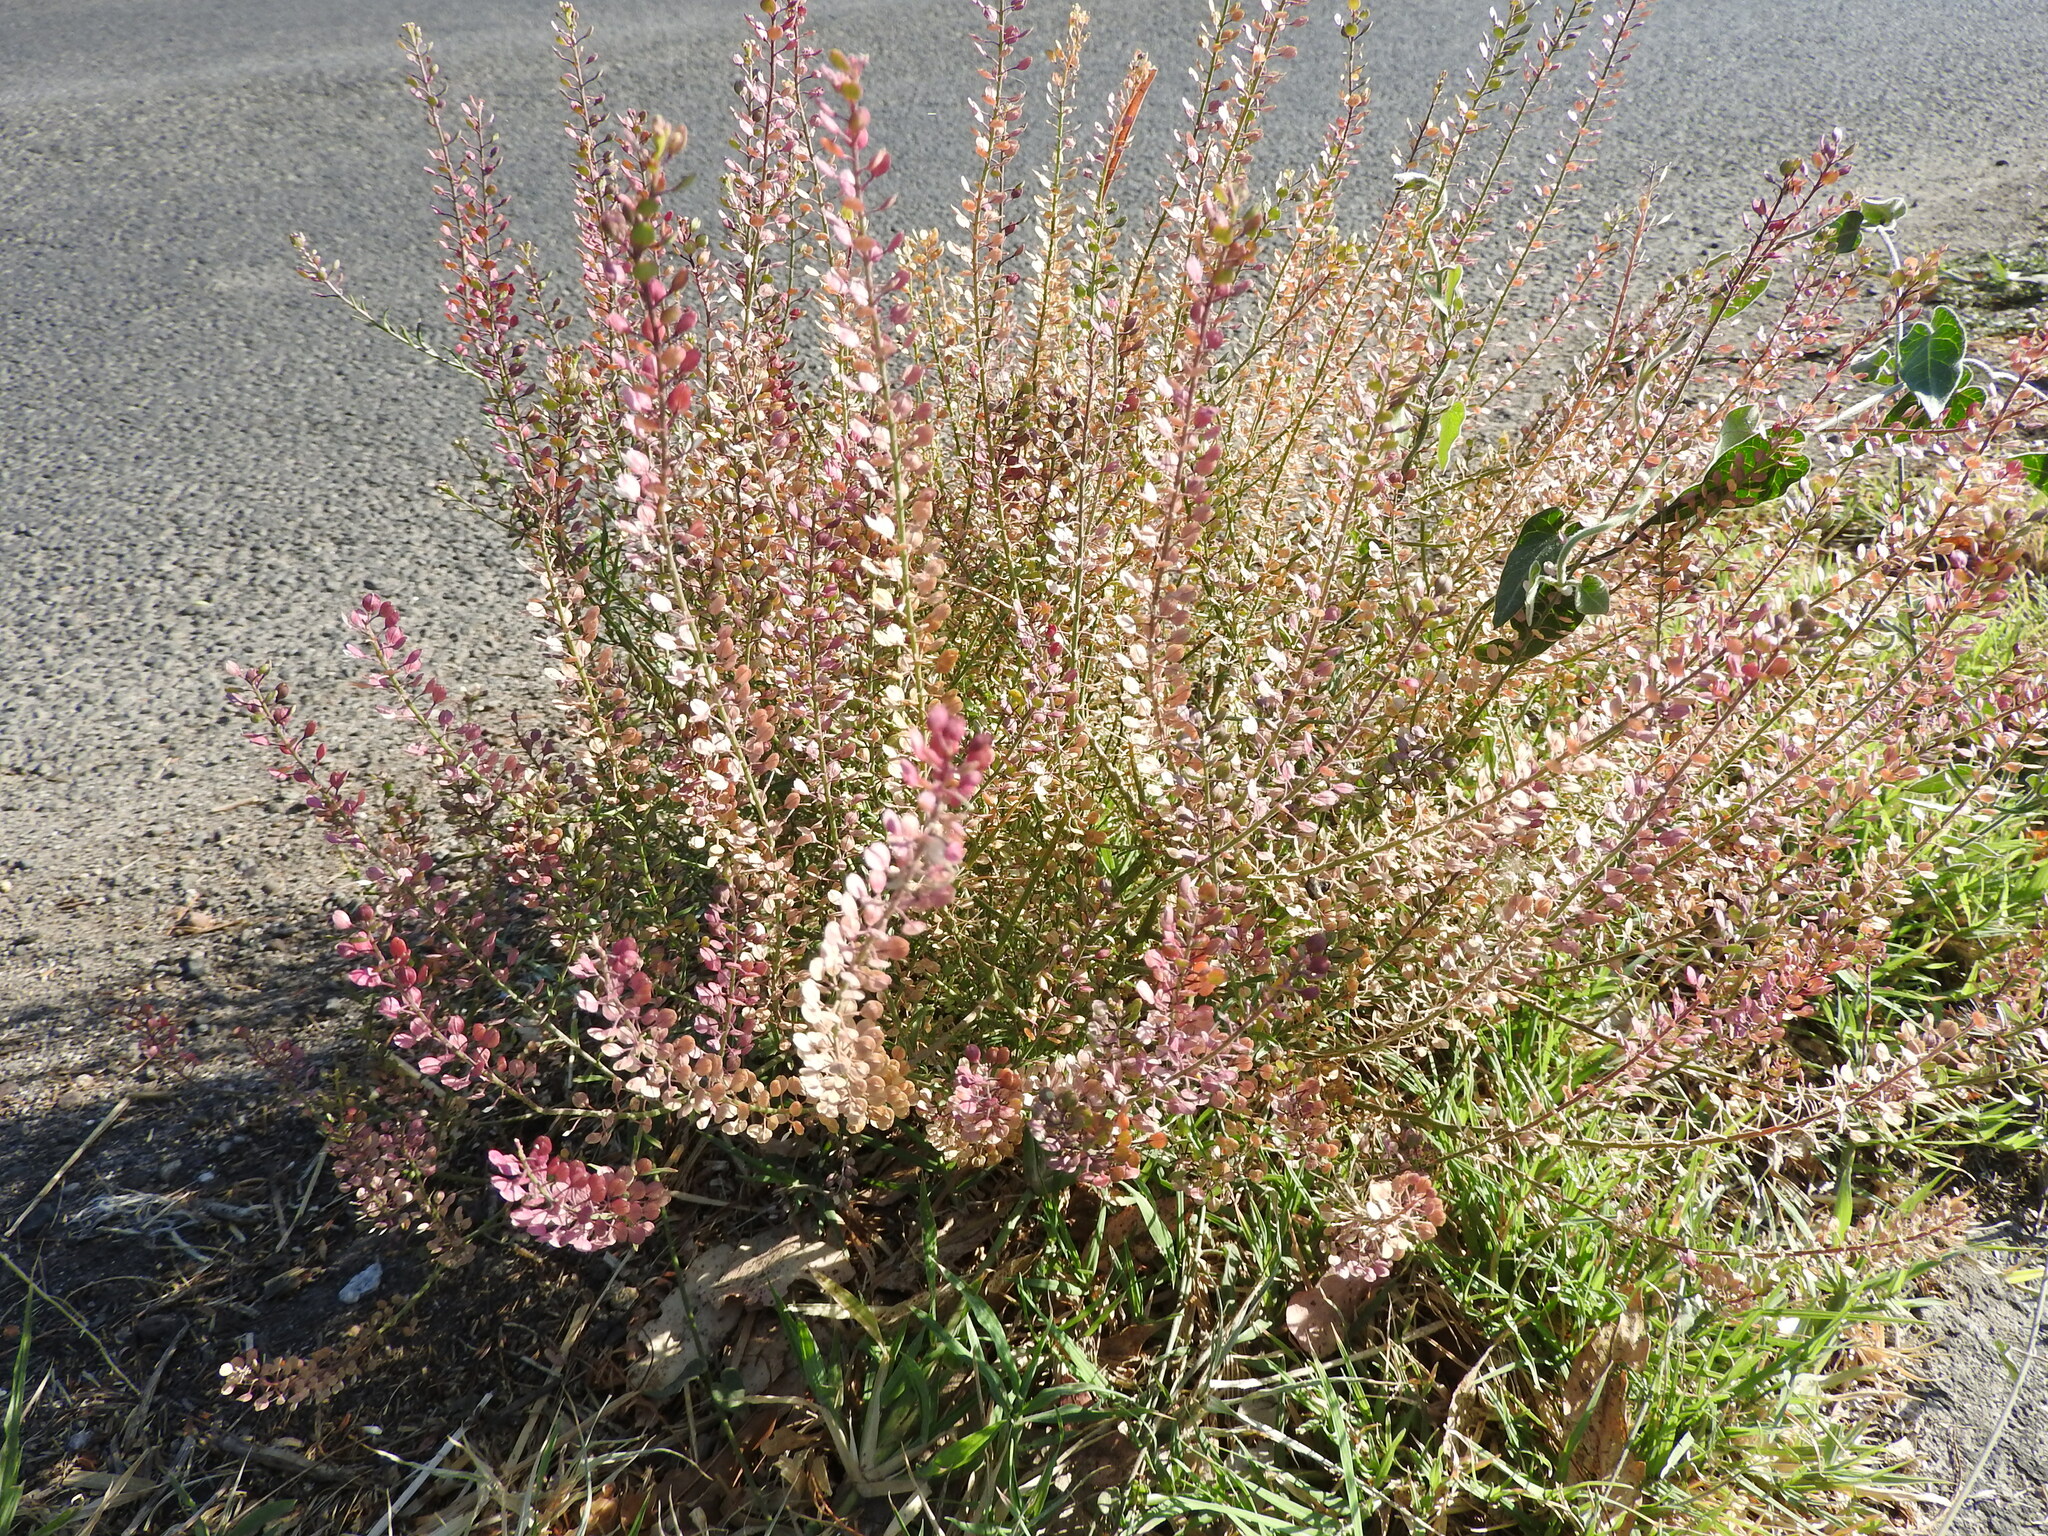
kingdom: Plantae
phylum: Tracheophyta
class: Magnoliopsida
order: Brassicales
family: Brassicaceae
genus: Lepidium
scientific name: Lepidium virginicum
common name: Least pepperwort
